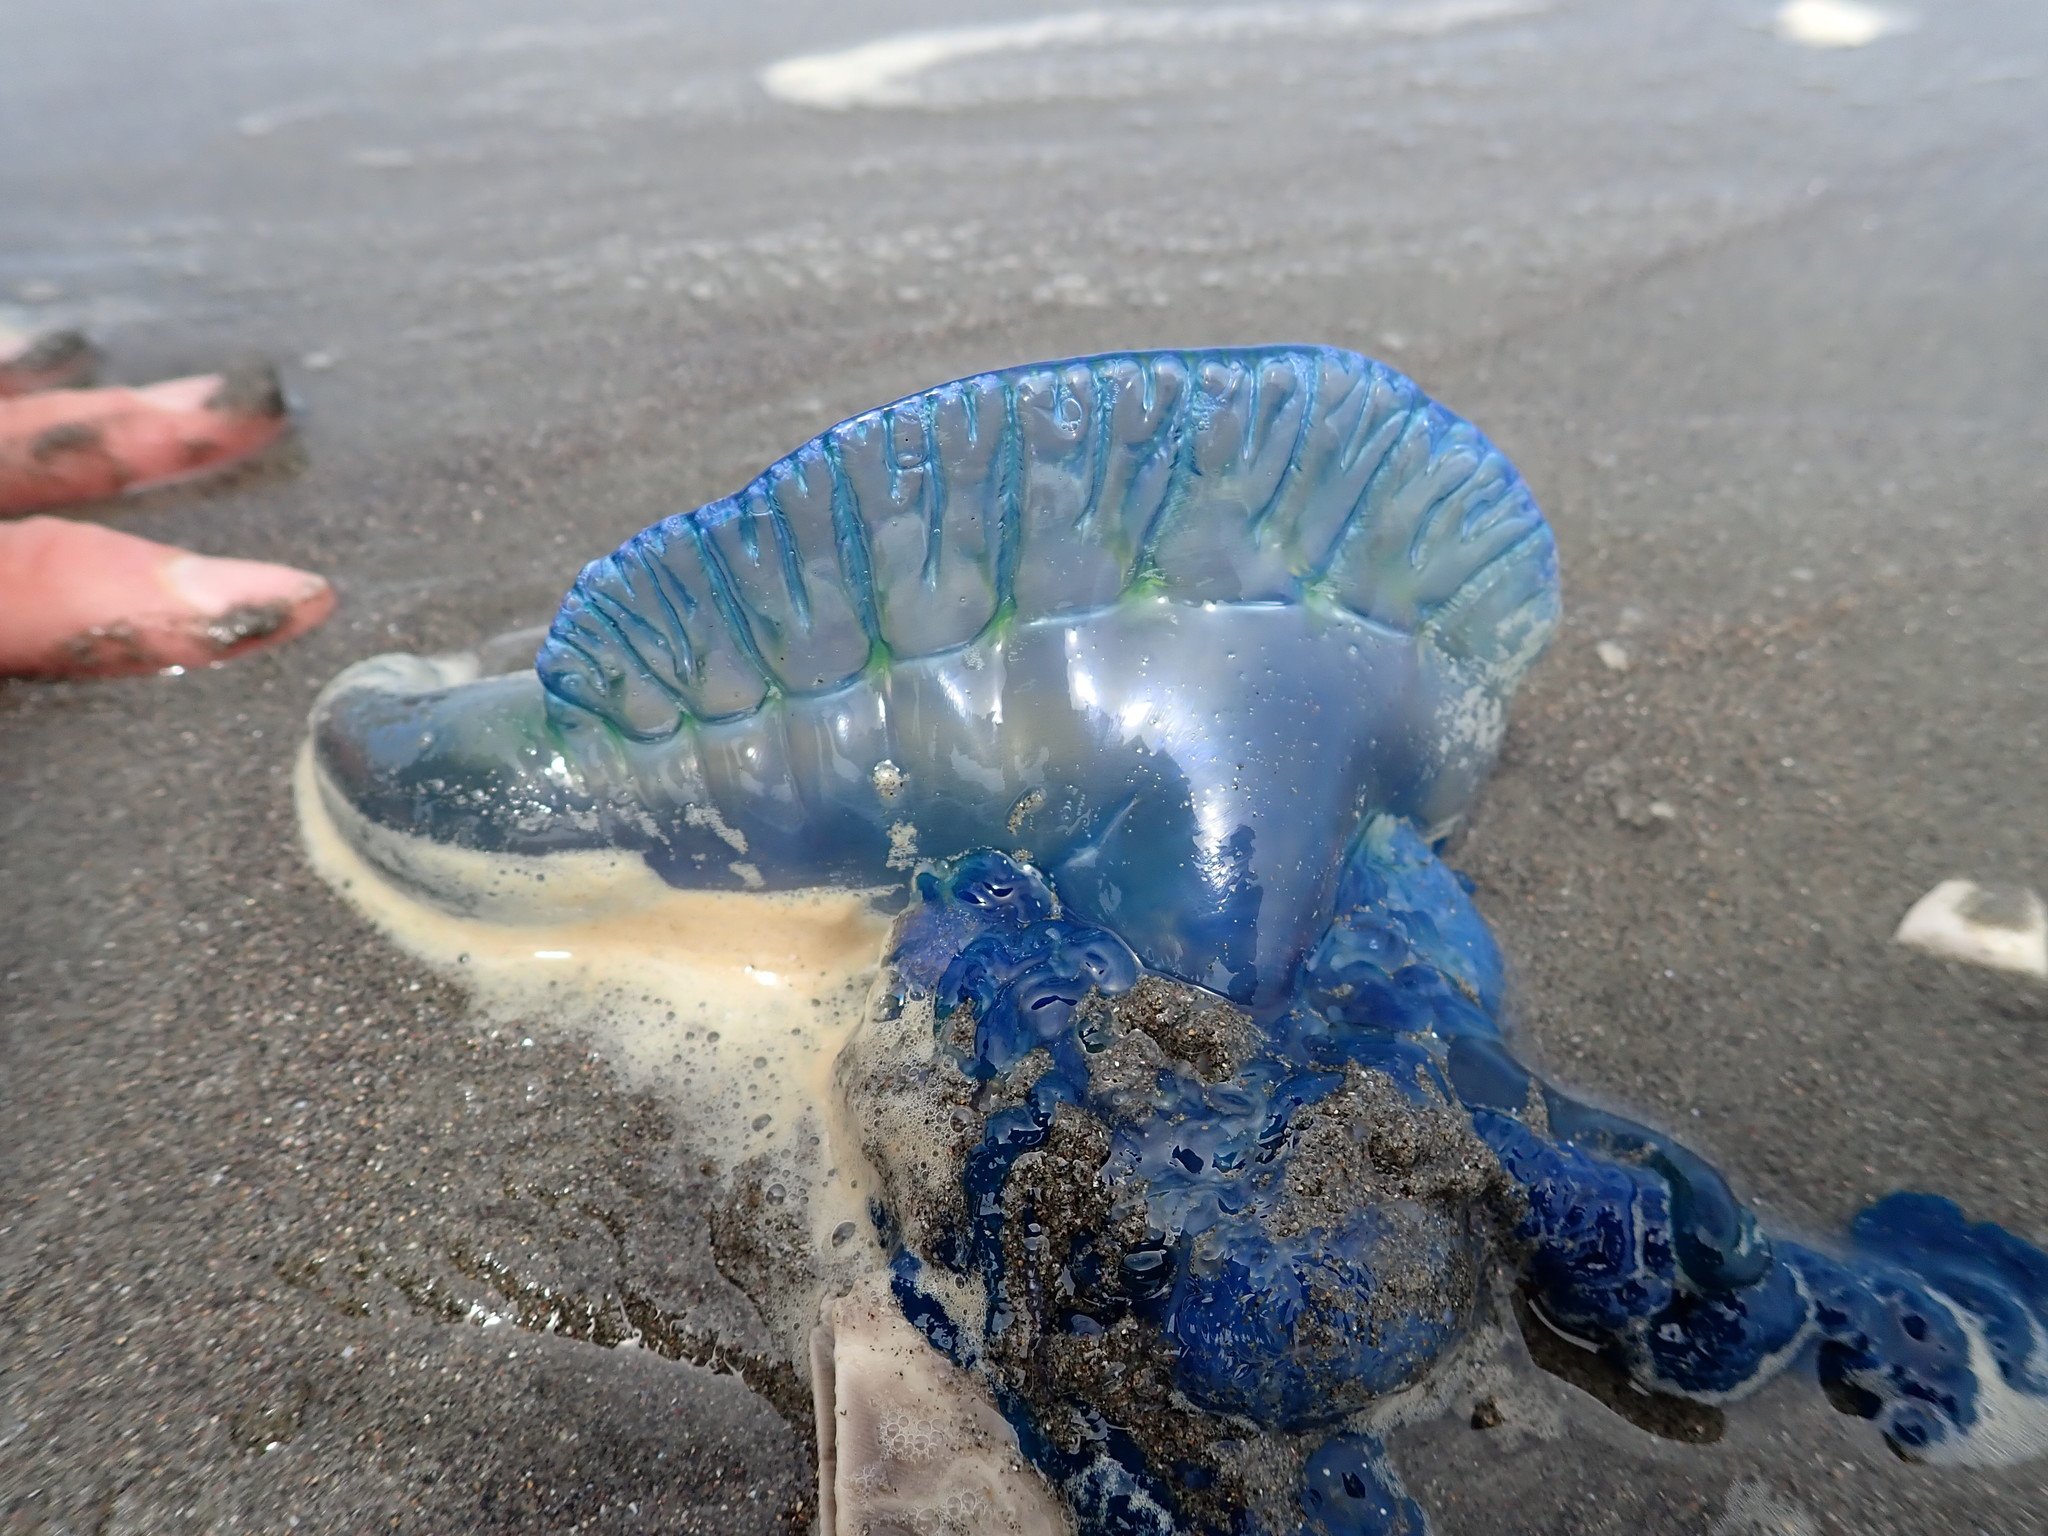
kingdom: Animalia
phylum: Cnidaria
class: Hydrozoa
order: Siphonophorae
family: Physaliidae
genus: Physalia
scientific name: Physalia physalis
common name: Portuguese man-of-war
